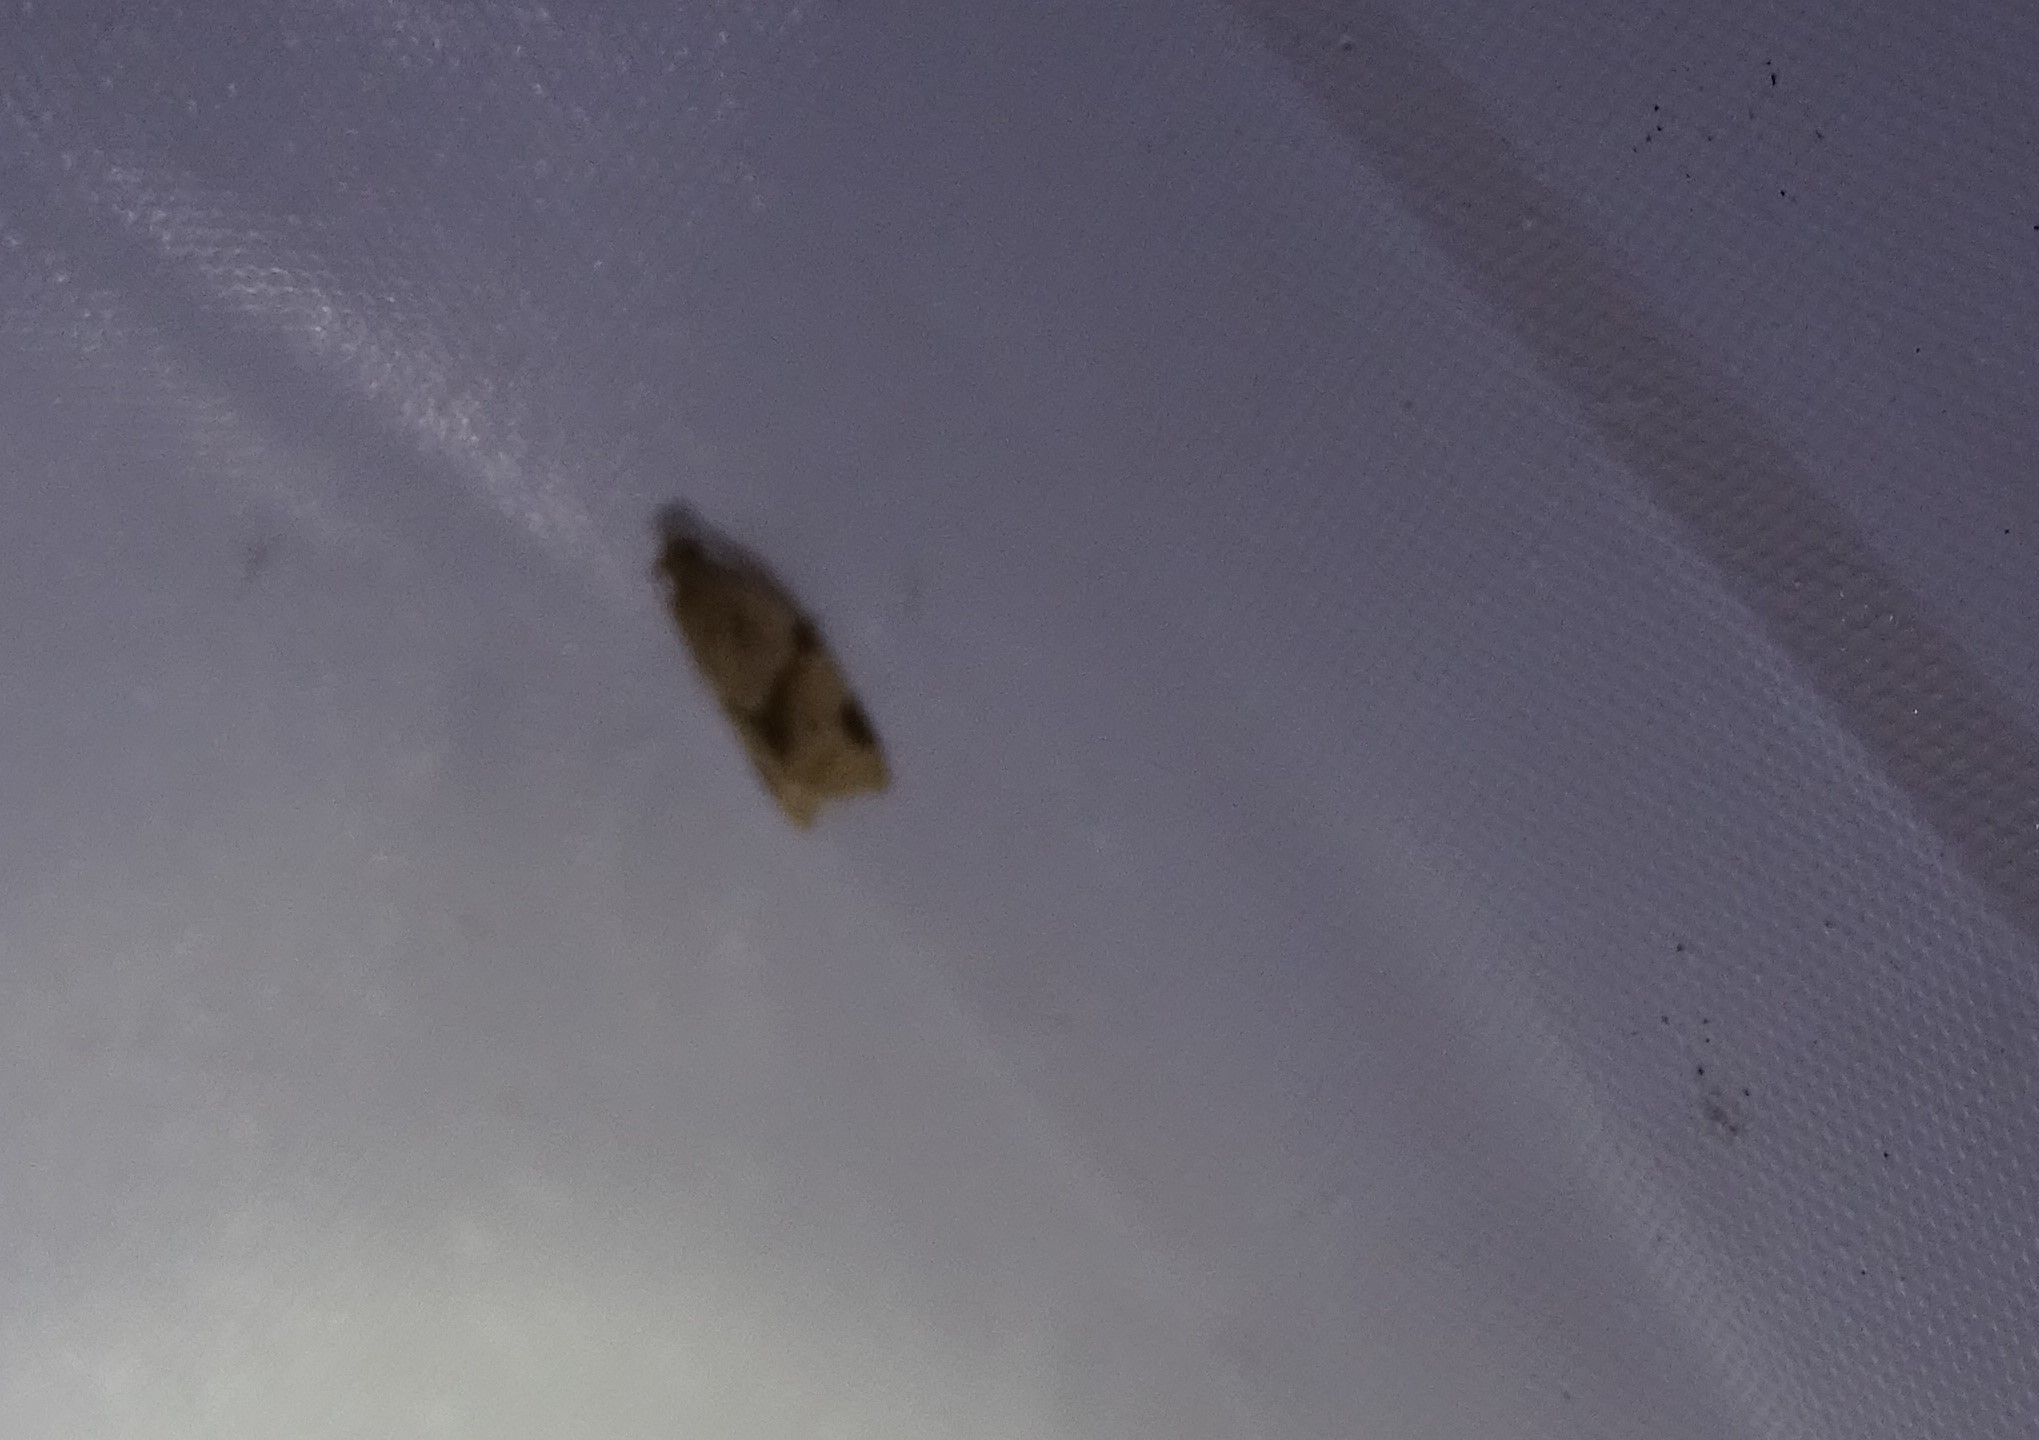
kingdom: Animalia
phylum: Arthropoda
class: Insecta
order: Lepidoptera
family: Tortricidae
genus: Clepsis
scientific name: Clepsis peritana
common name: Garden tortrix
